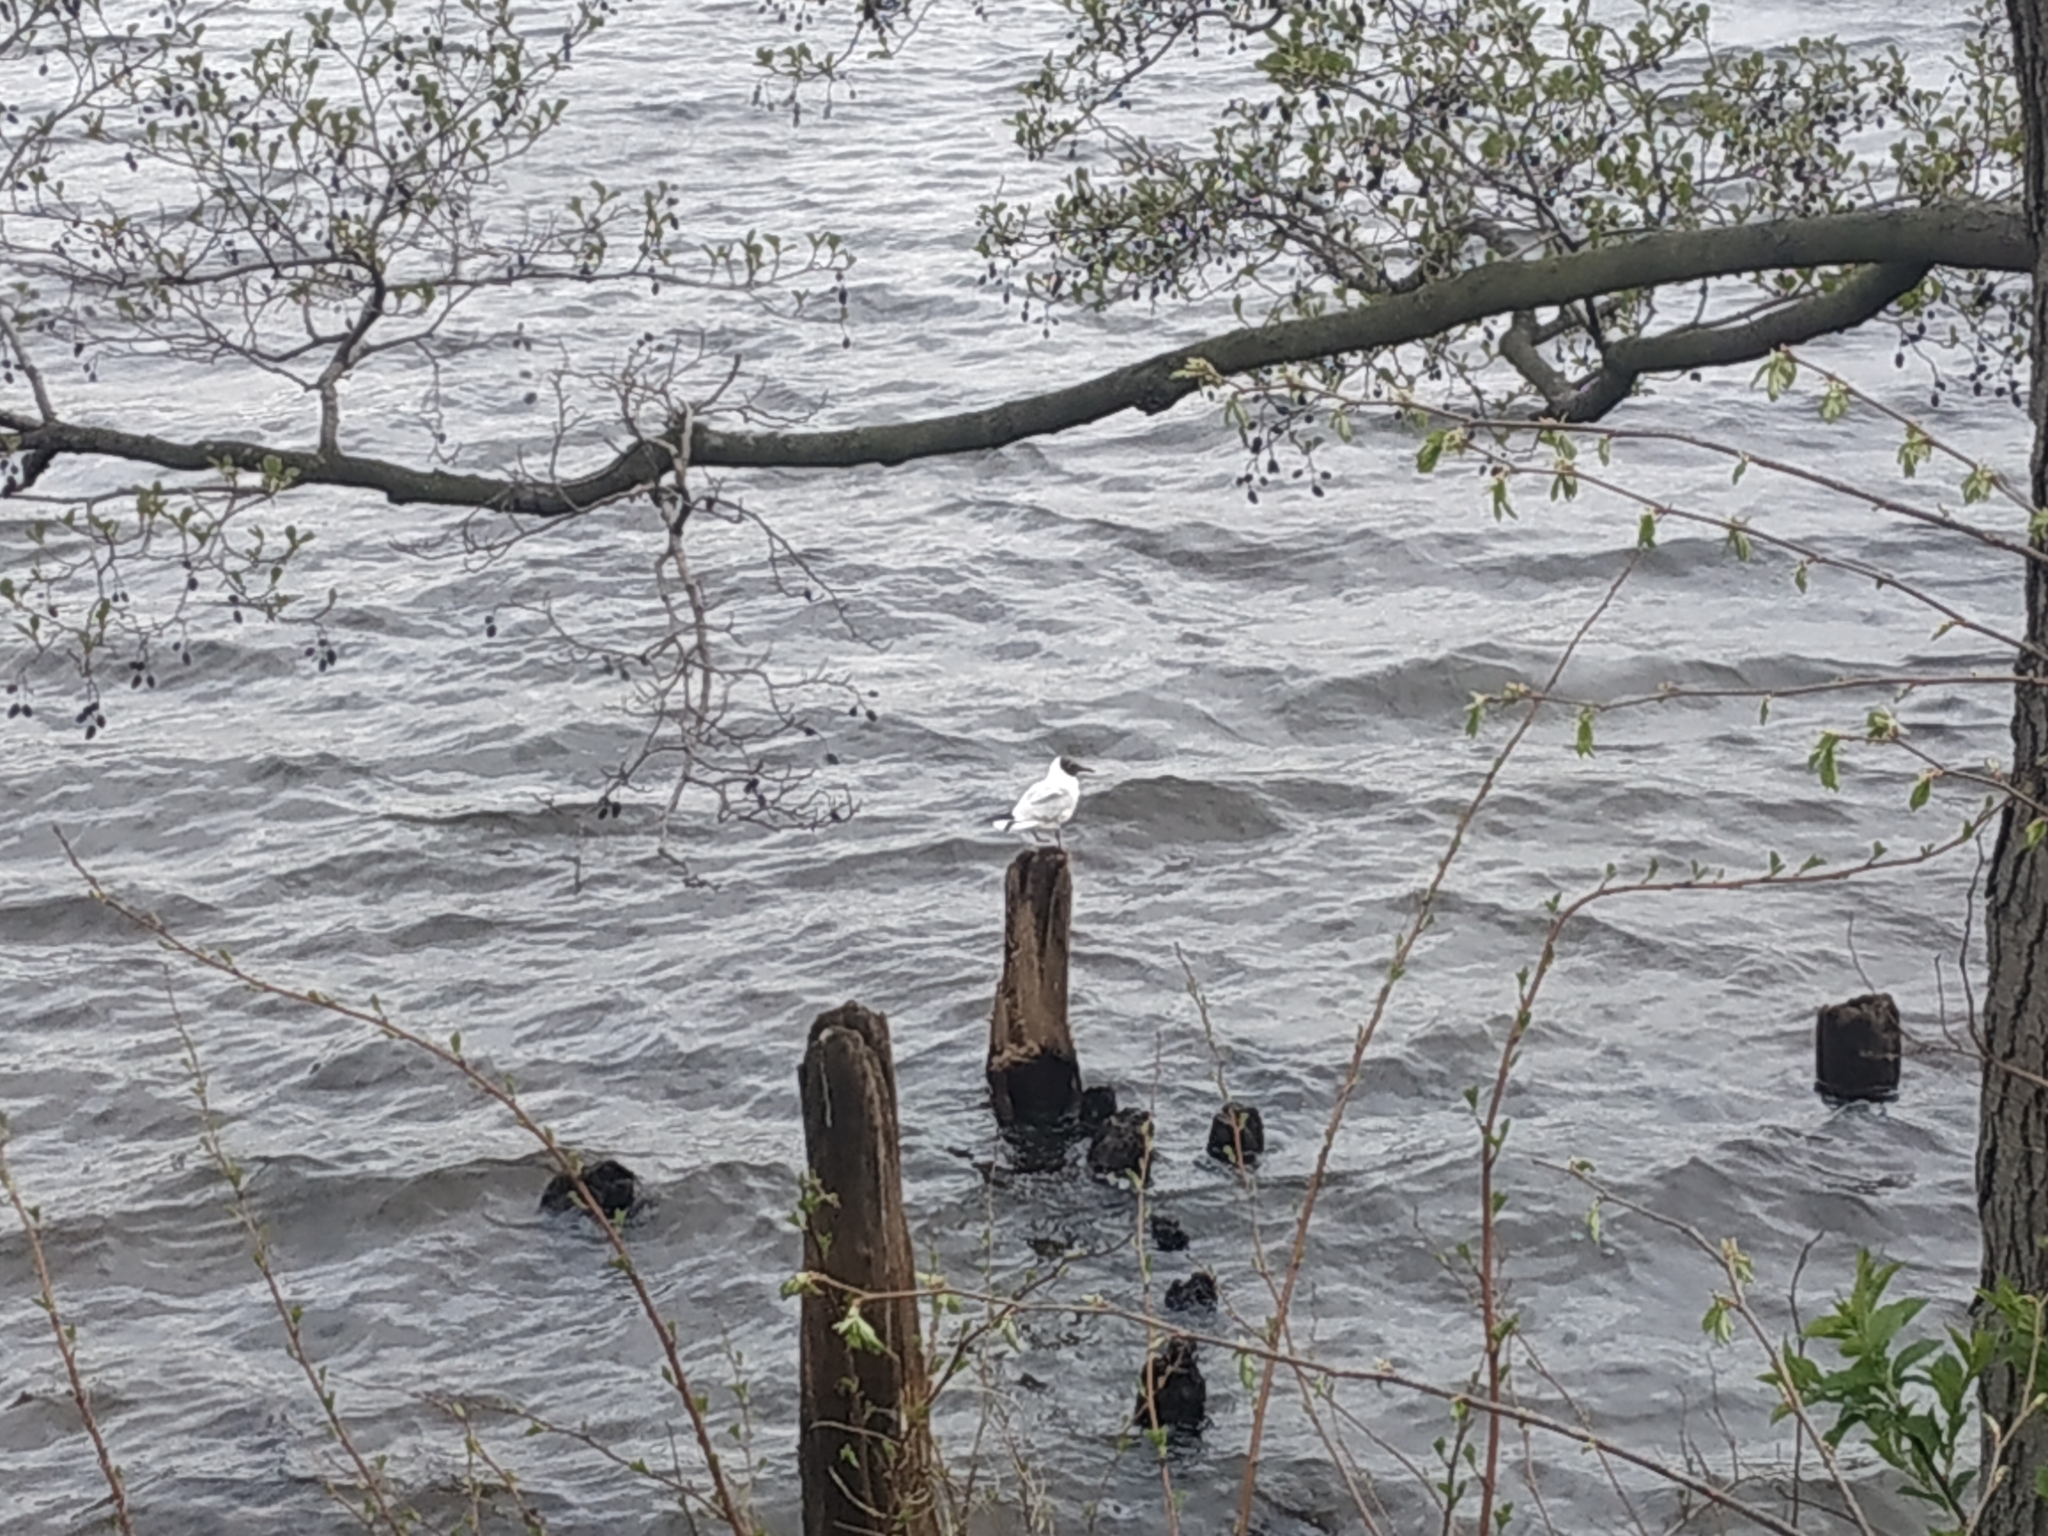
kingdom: Animalia
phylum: Chordata
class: Aves
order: Charadriiformes
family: Laridae
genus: Chroicocephalus
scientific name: Chroicocephalus ridibundus
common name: Black-headed gull
